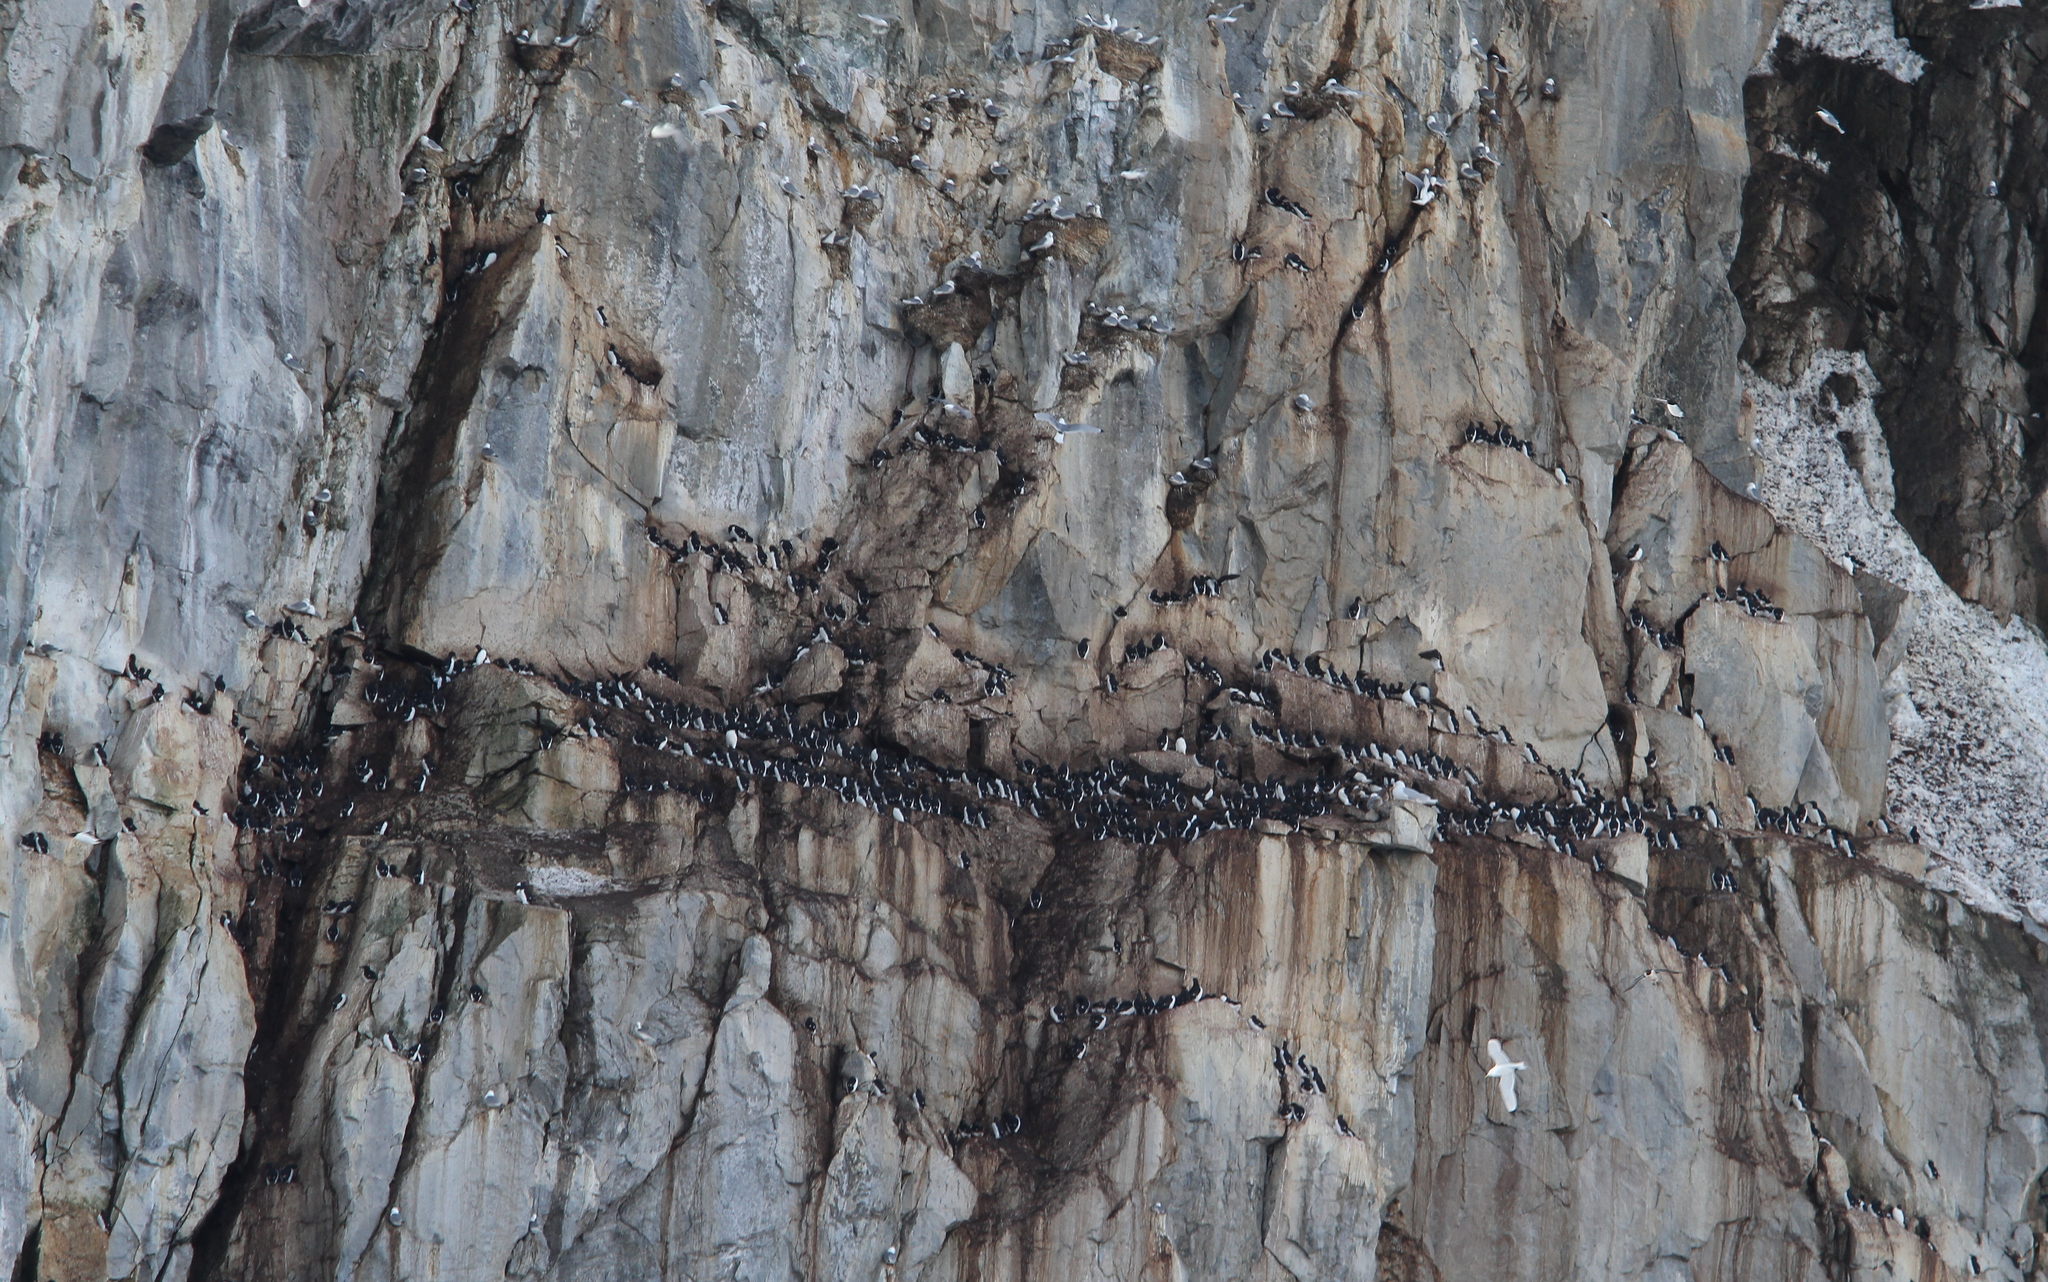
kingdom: Animalia
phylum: Chordata
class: Aves
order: Charadriiformes
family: Alcidae
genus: Uria
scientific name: Uria lomvia
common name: Thick-billed murre
